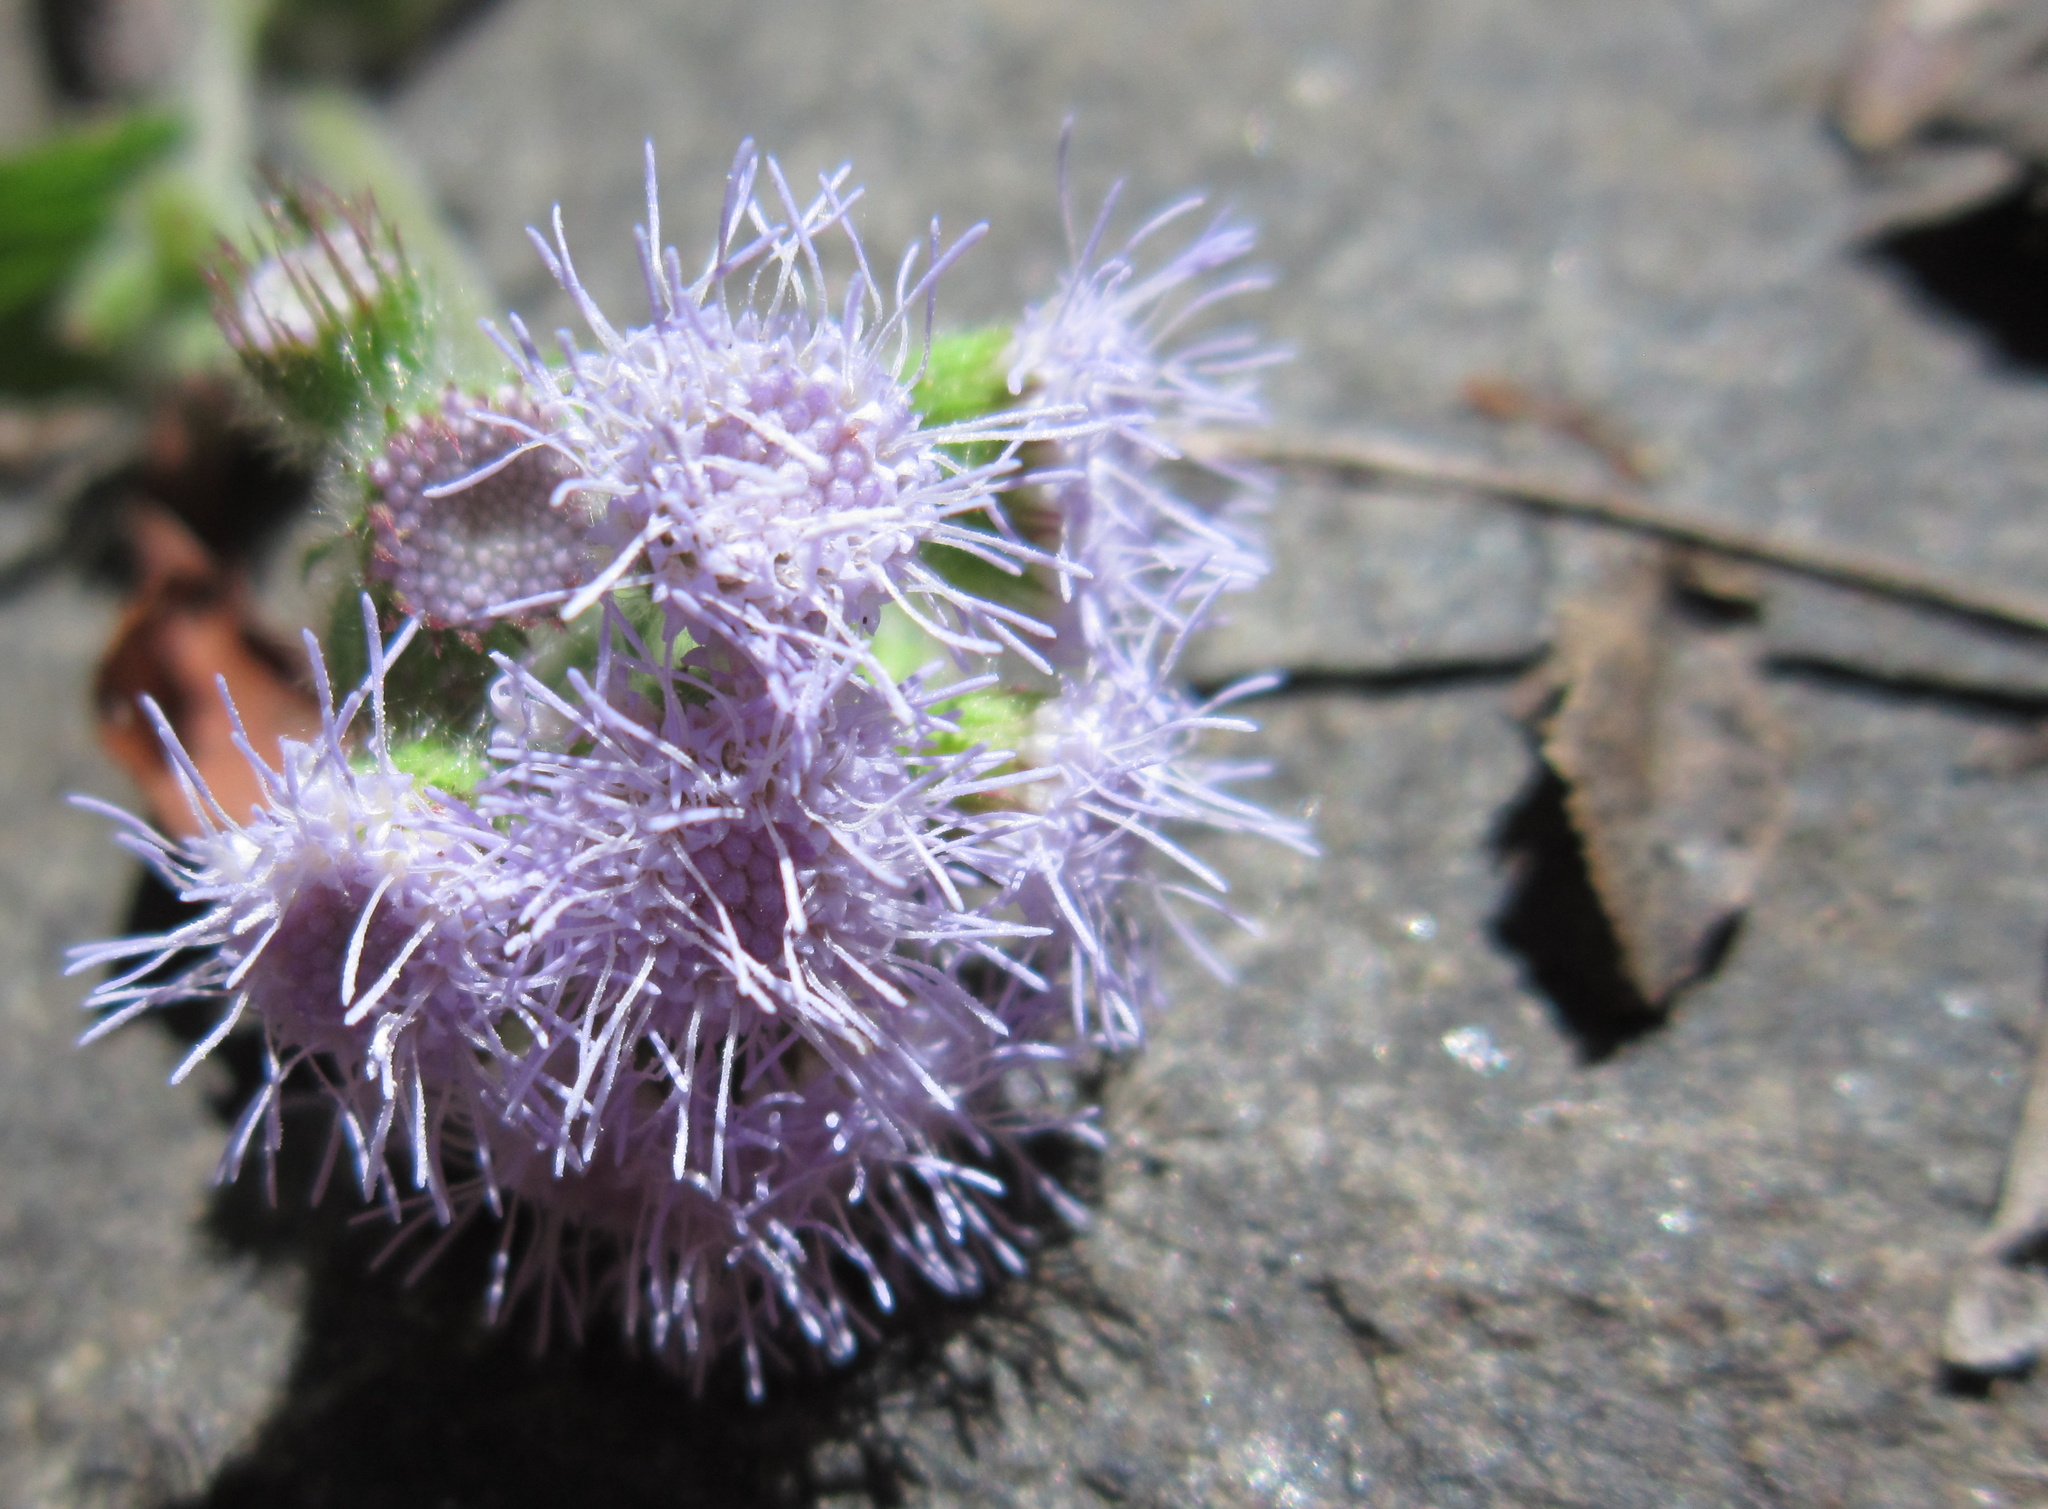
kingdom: Plantae
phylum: Tracheophyta
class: Magnoliopsida
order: Asterales
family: Asteraceae
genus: Ageratum
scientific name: Ageratum houstonianum
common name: Bluemink
